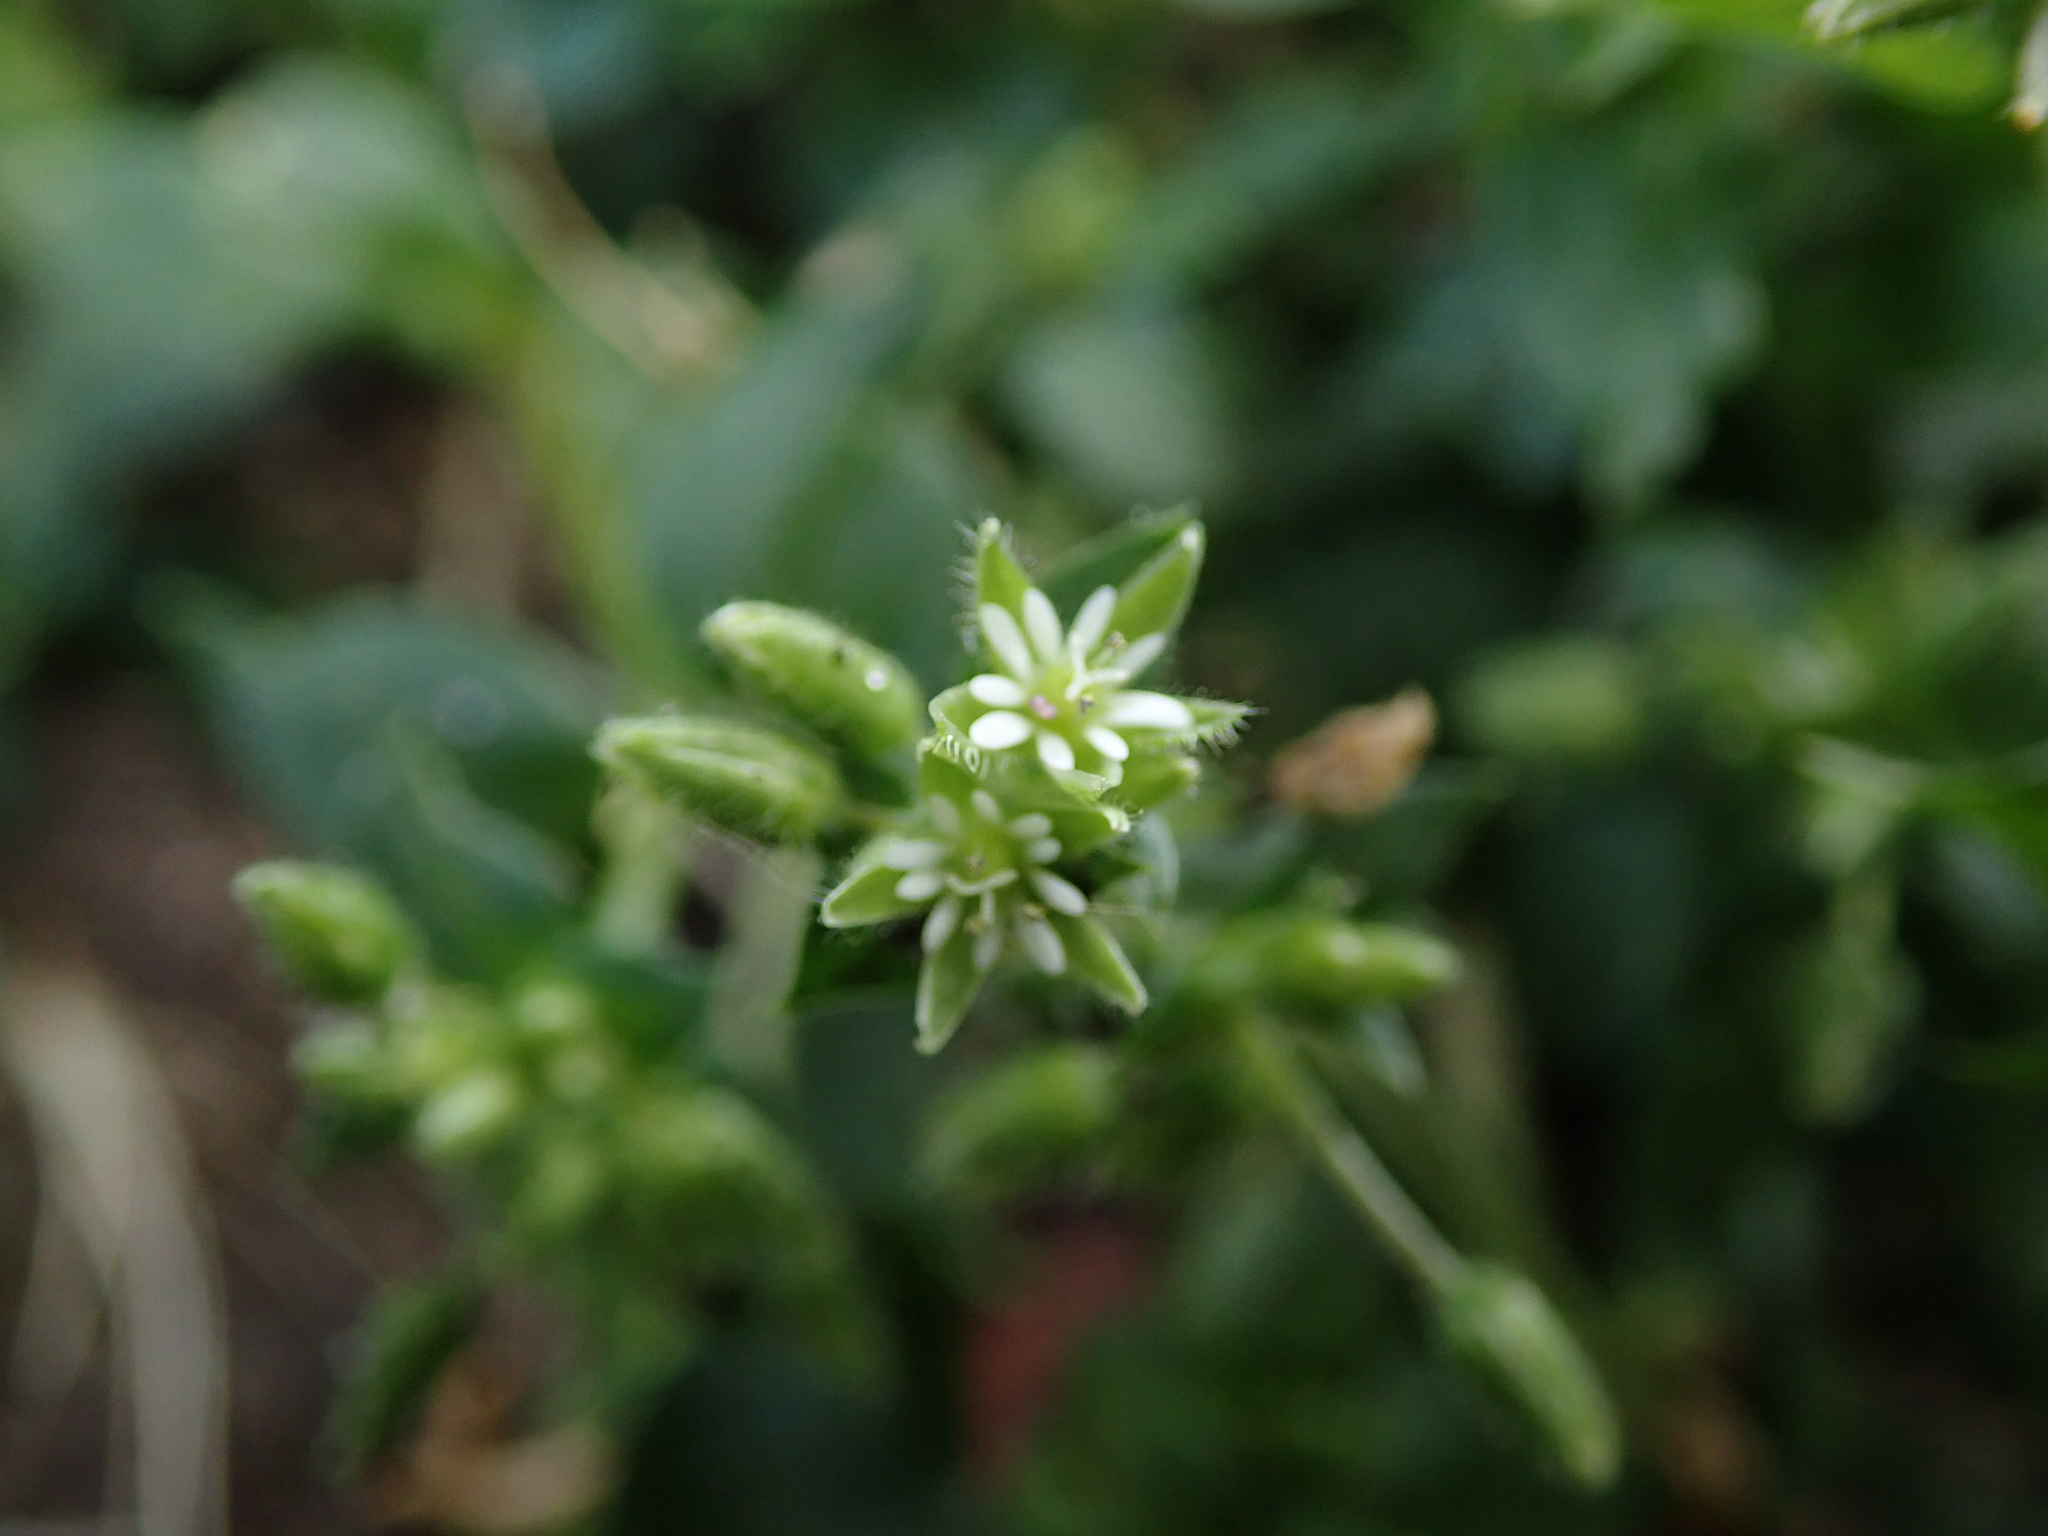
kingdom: Plantae
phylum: Tracheophyta
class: Magnoliopsida
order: Caryophyllales
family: Caryophyllaceae
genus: Stellaria
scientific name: Stellaria media
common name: Common chickweed
